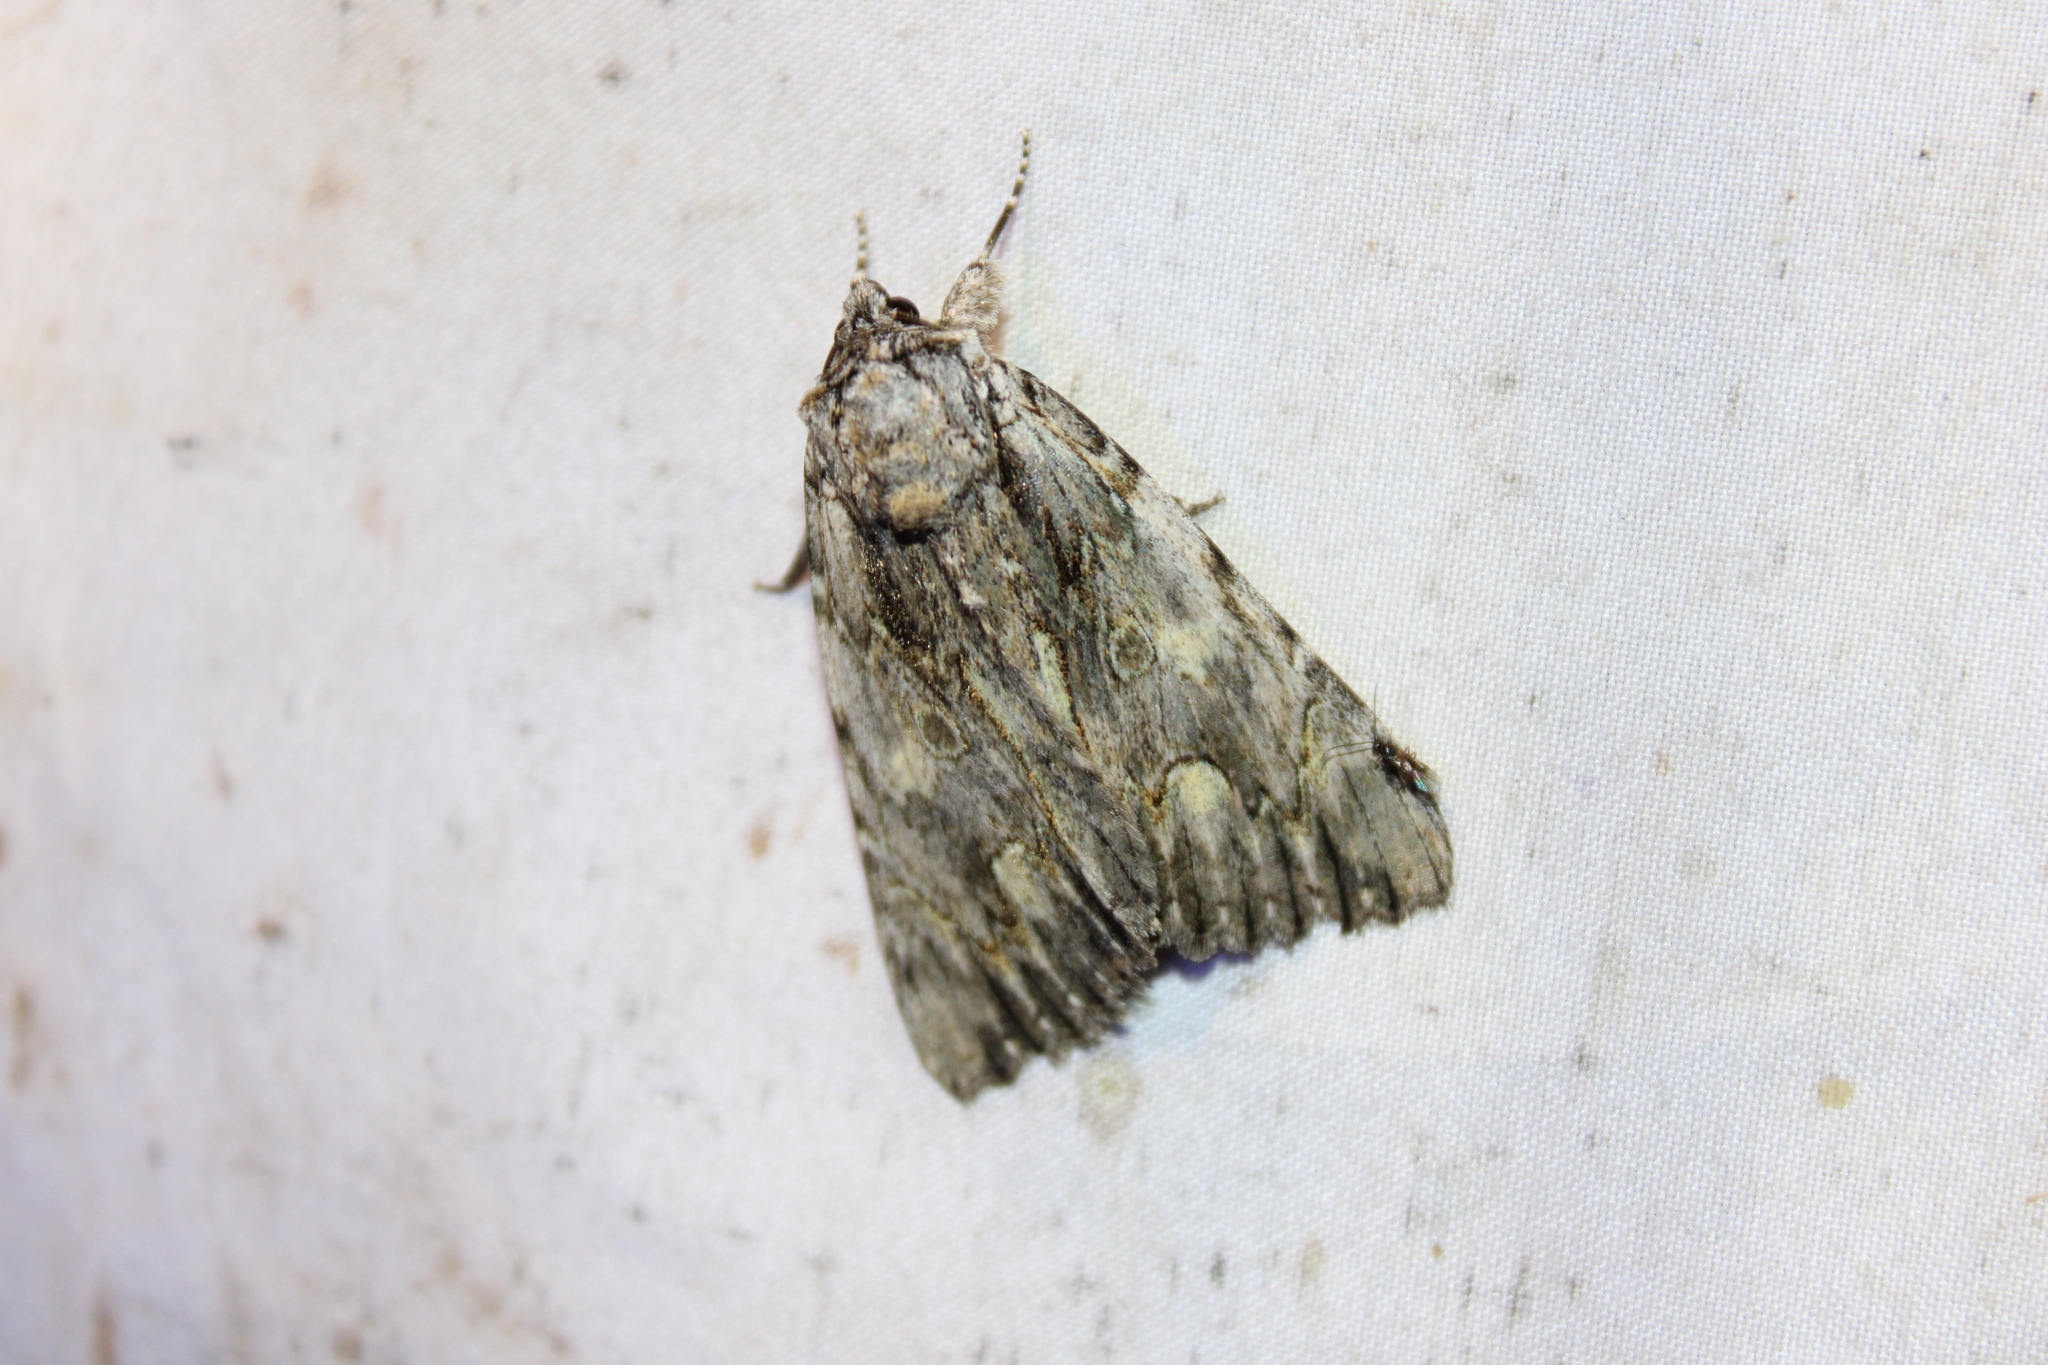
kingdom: Animalia
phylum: Arthropoda
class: Insecta
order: Lepidoptera
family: Erebidae
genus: Catocala
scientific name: Catocala coccinata
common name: Scarlet underwing
